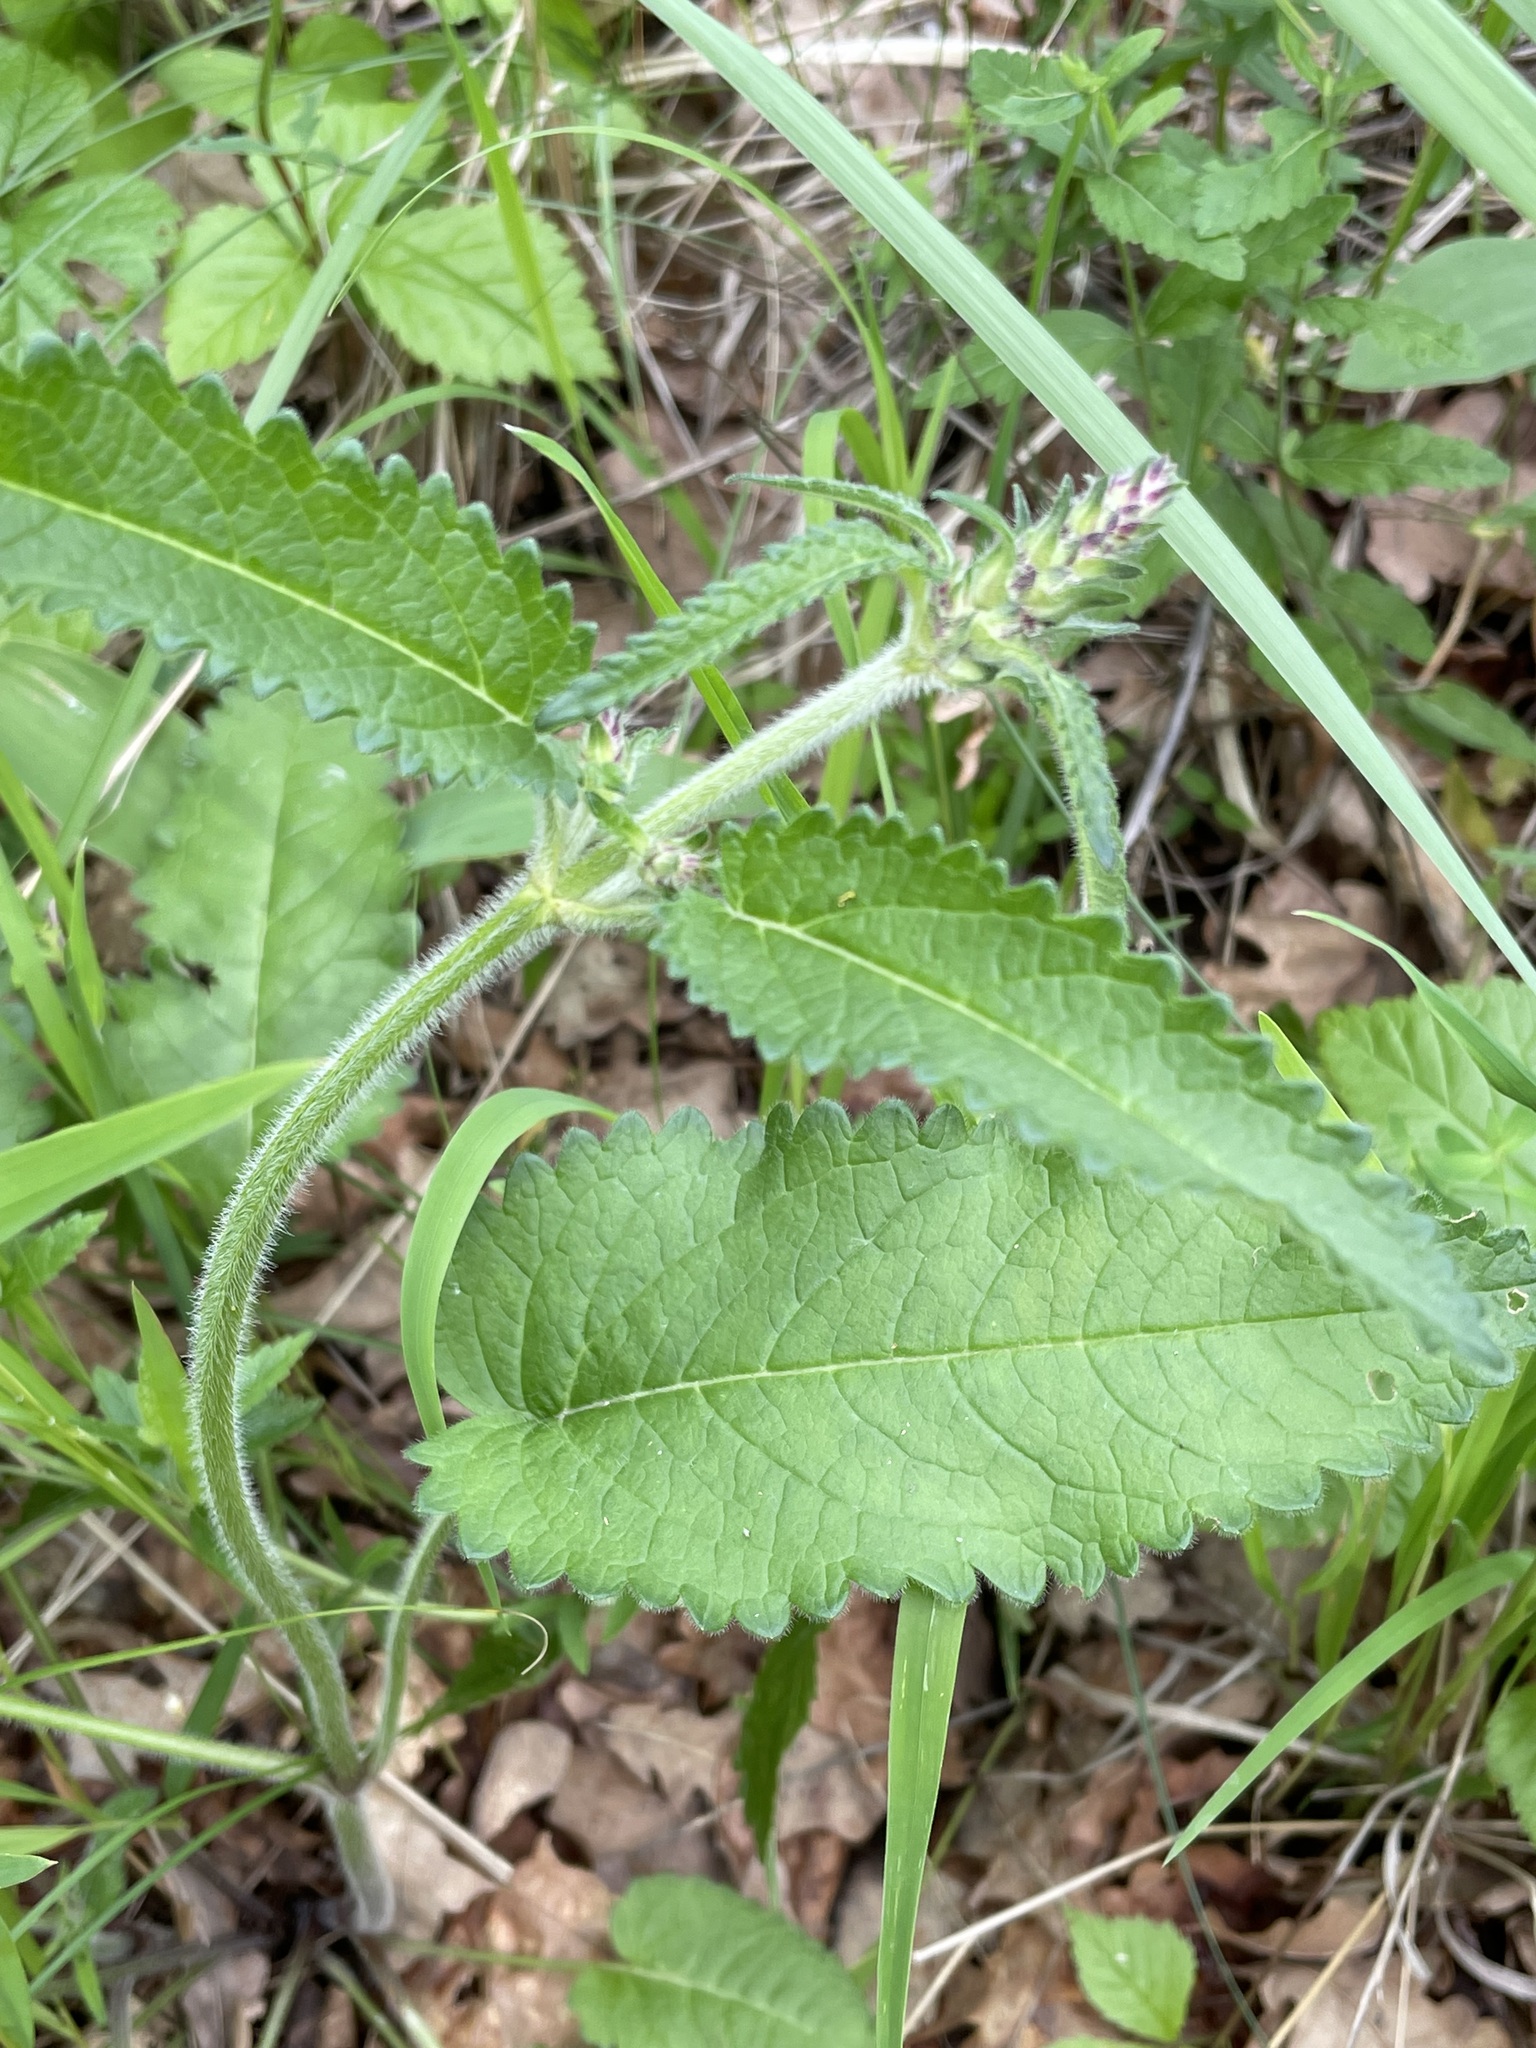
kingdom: Plantae
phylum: Tracheophyta
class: Magnoliopsida
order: Lamiales
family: Lamiaceae
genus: Betonica
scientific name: Betonica officinalis
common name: Bishop's-wort
